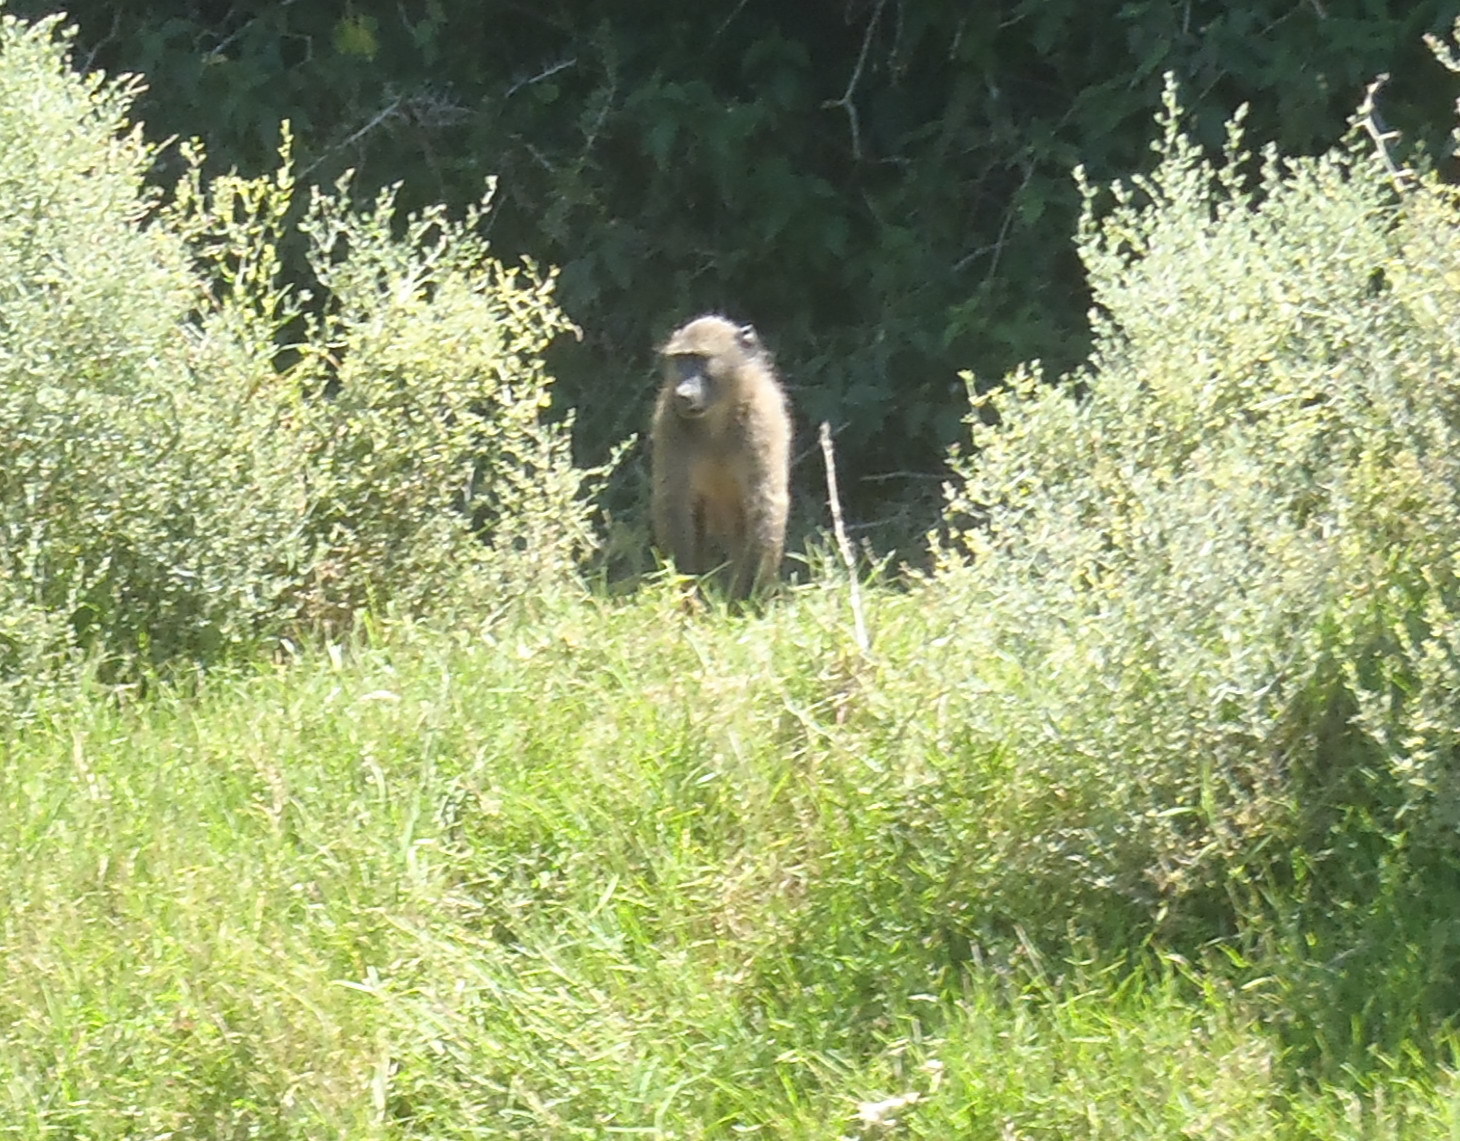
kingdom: Animalia
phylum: Chordata
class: Mammalia
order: Primates
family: Cercopithecidae
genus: Papio
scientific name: Papio ursinus
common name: Chacma baboon
